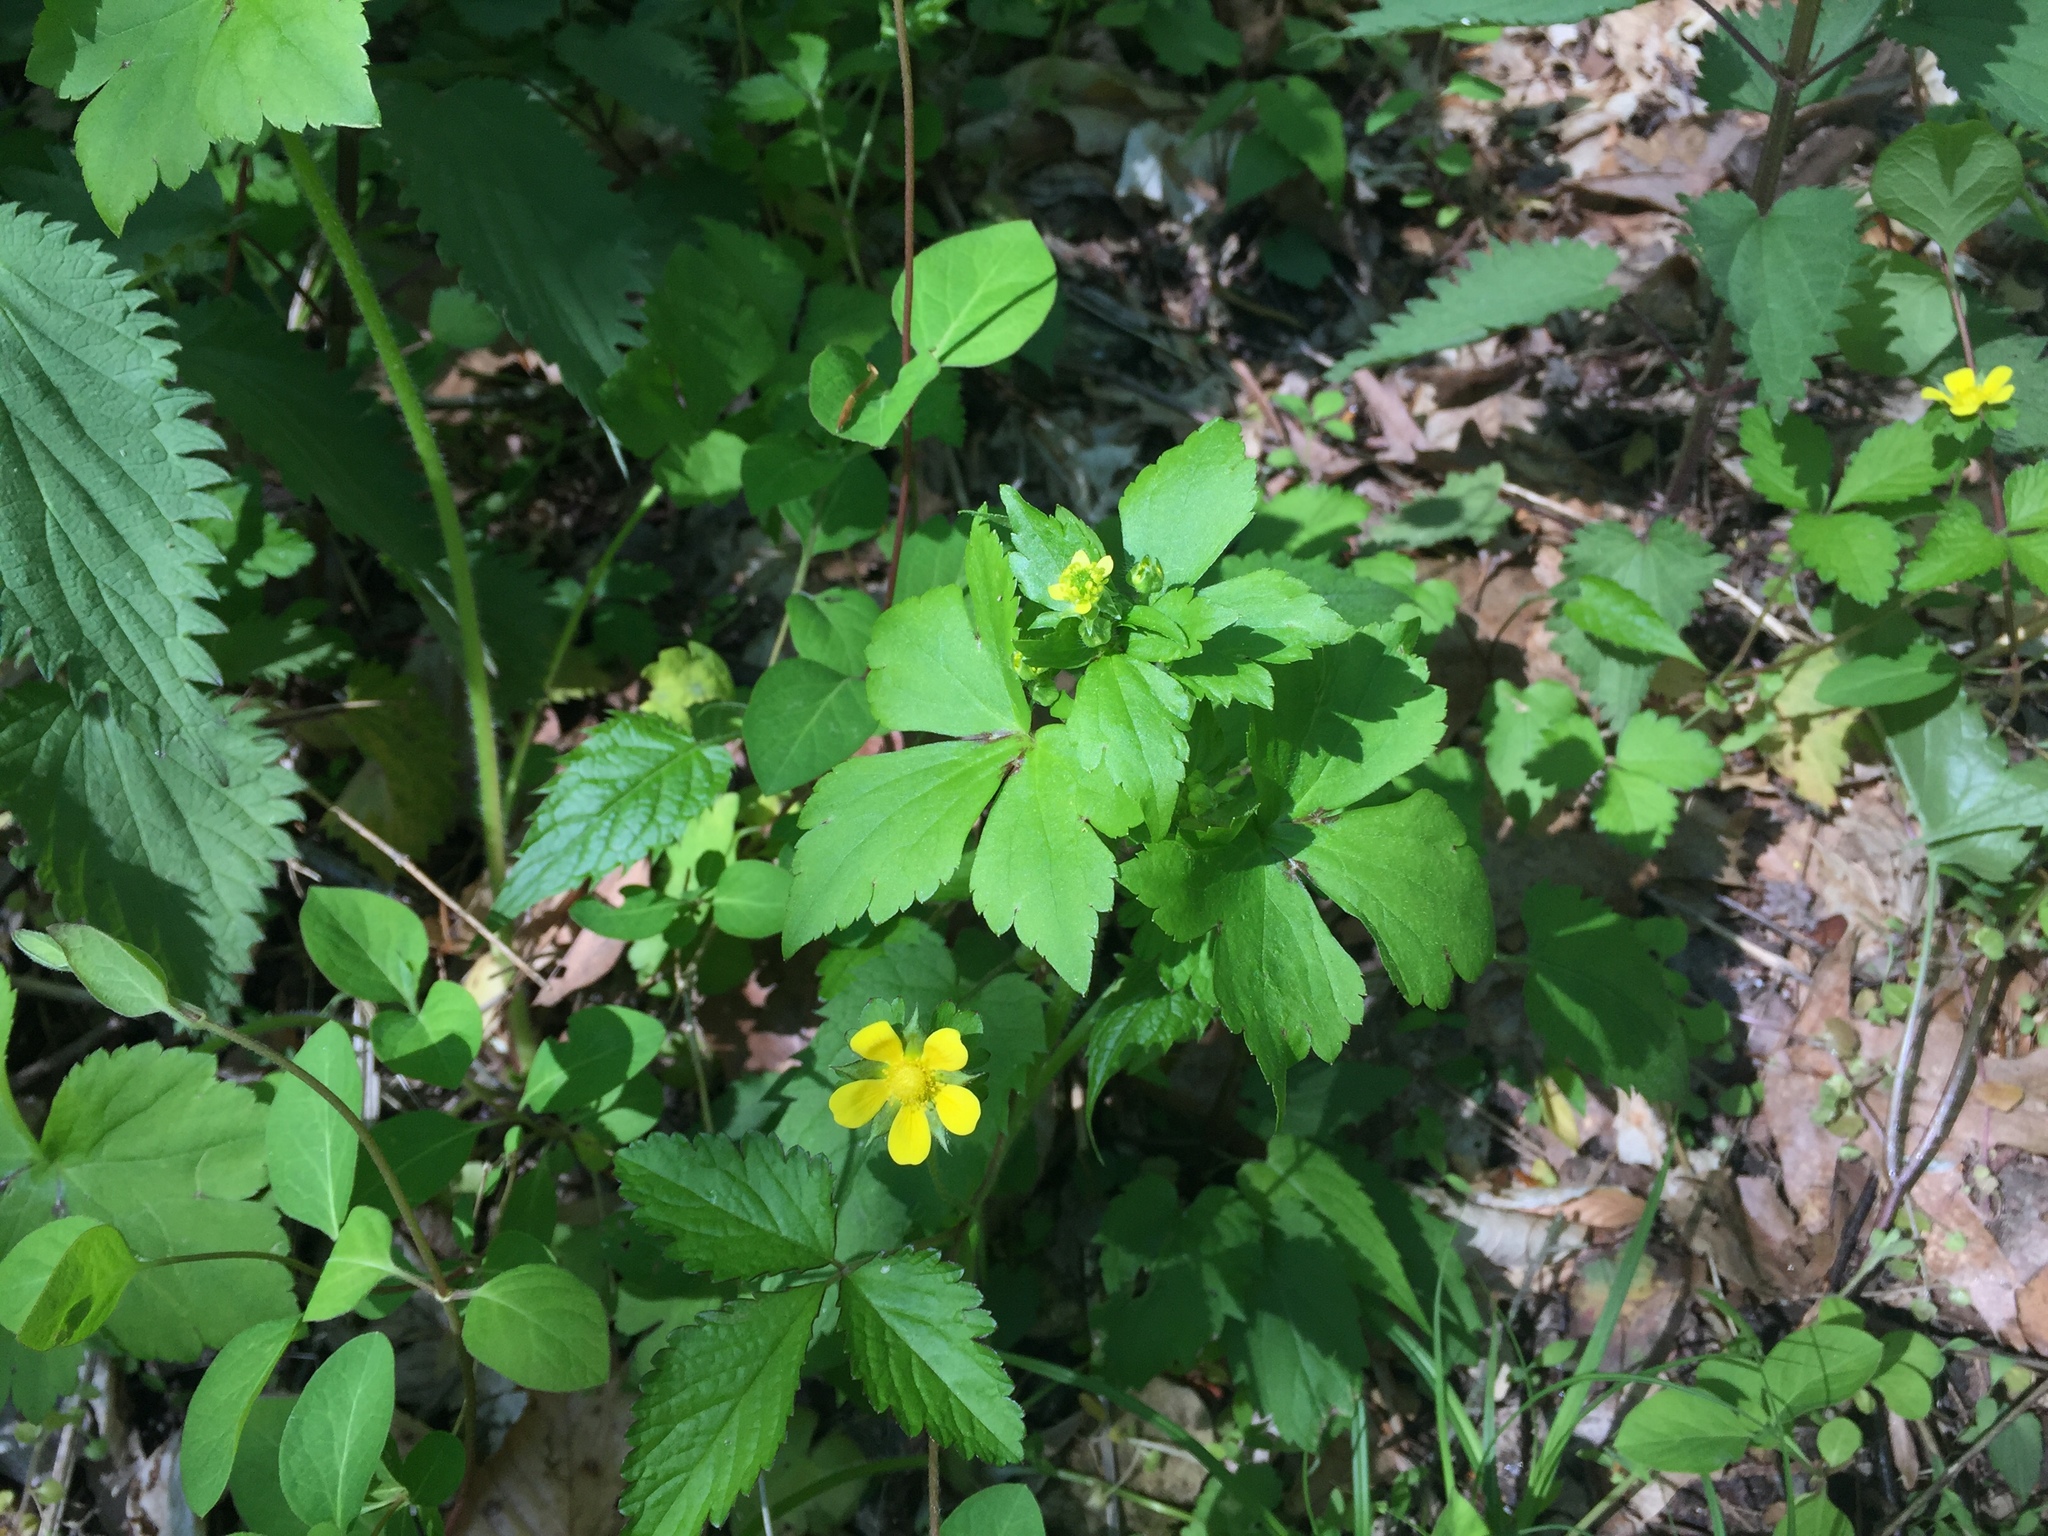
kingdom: Plantae
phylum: Tracheophyta
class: Magnoliopsida
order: Ranunculales
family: Ranunculaceae
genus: Ranunculus
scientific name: Ranunculus recurvatus
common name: Blisterwort
